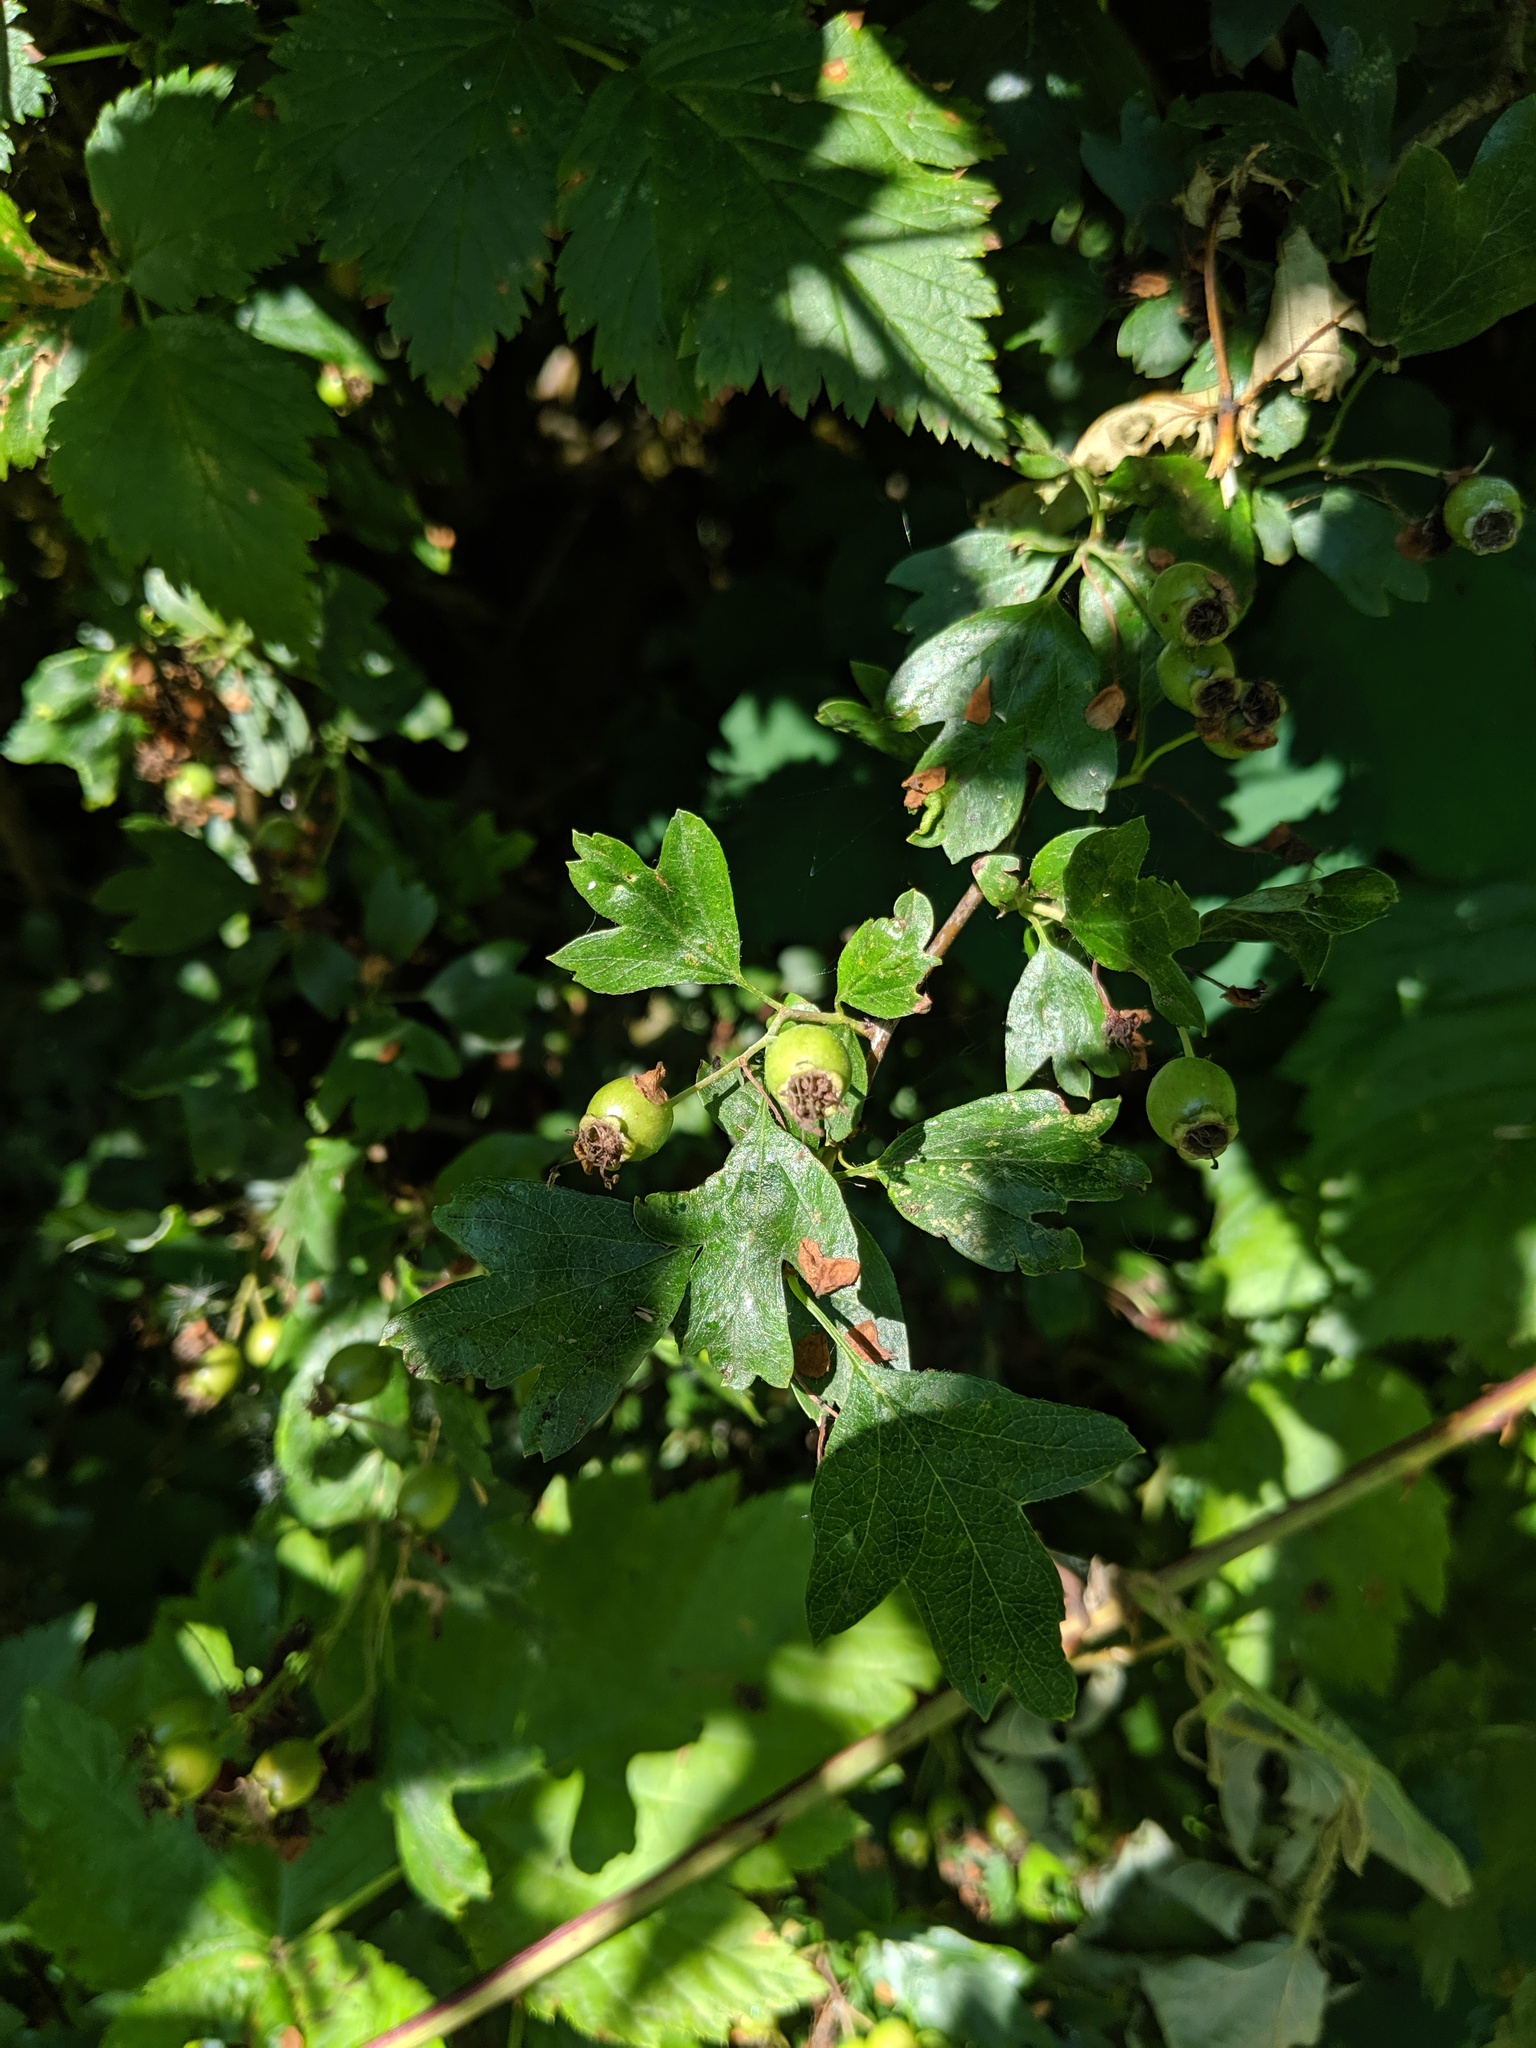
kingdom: Plantae
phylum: Tracheophyta
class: Magnoliopsida
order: Rosales
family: Rosaceae
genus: Crataegus
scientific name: Crataegus monogyna
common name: Hawthorn
